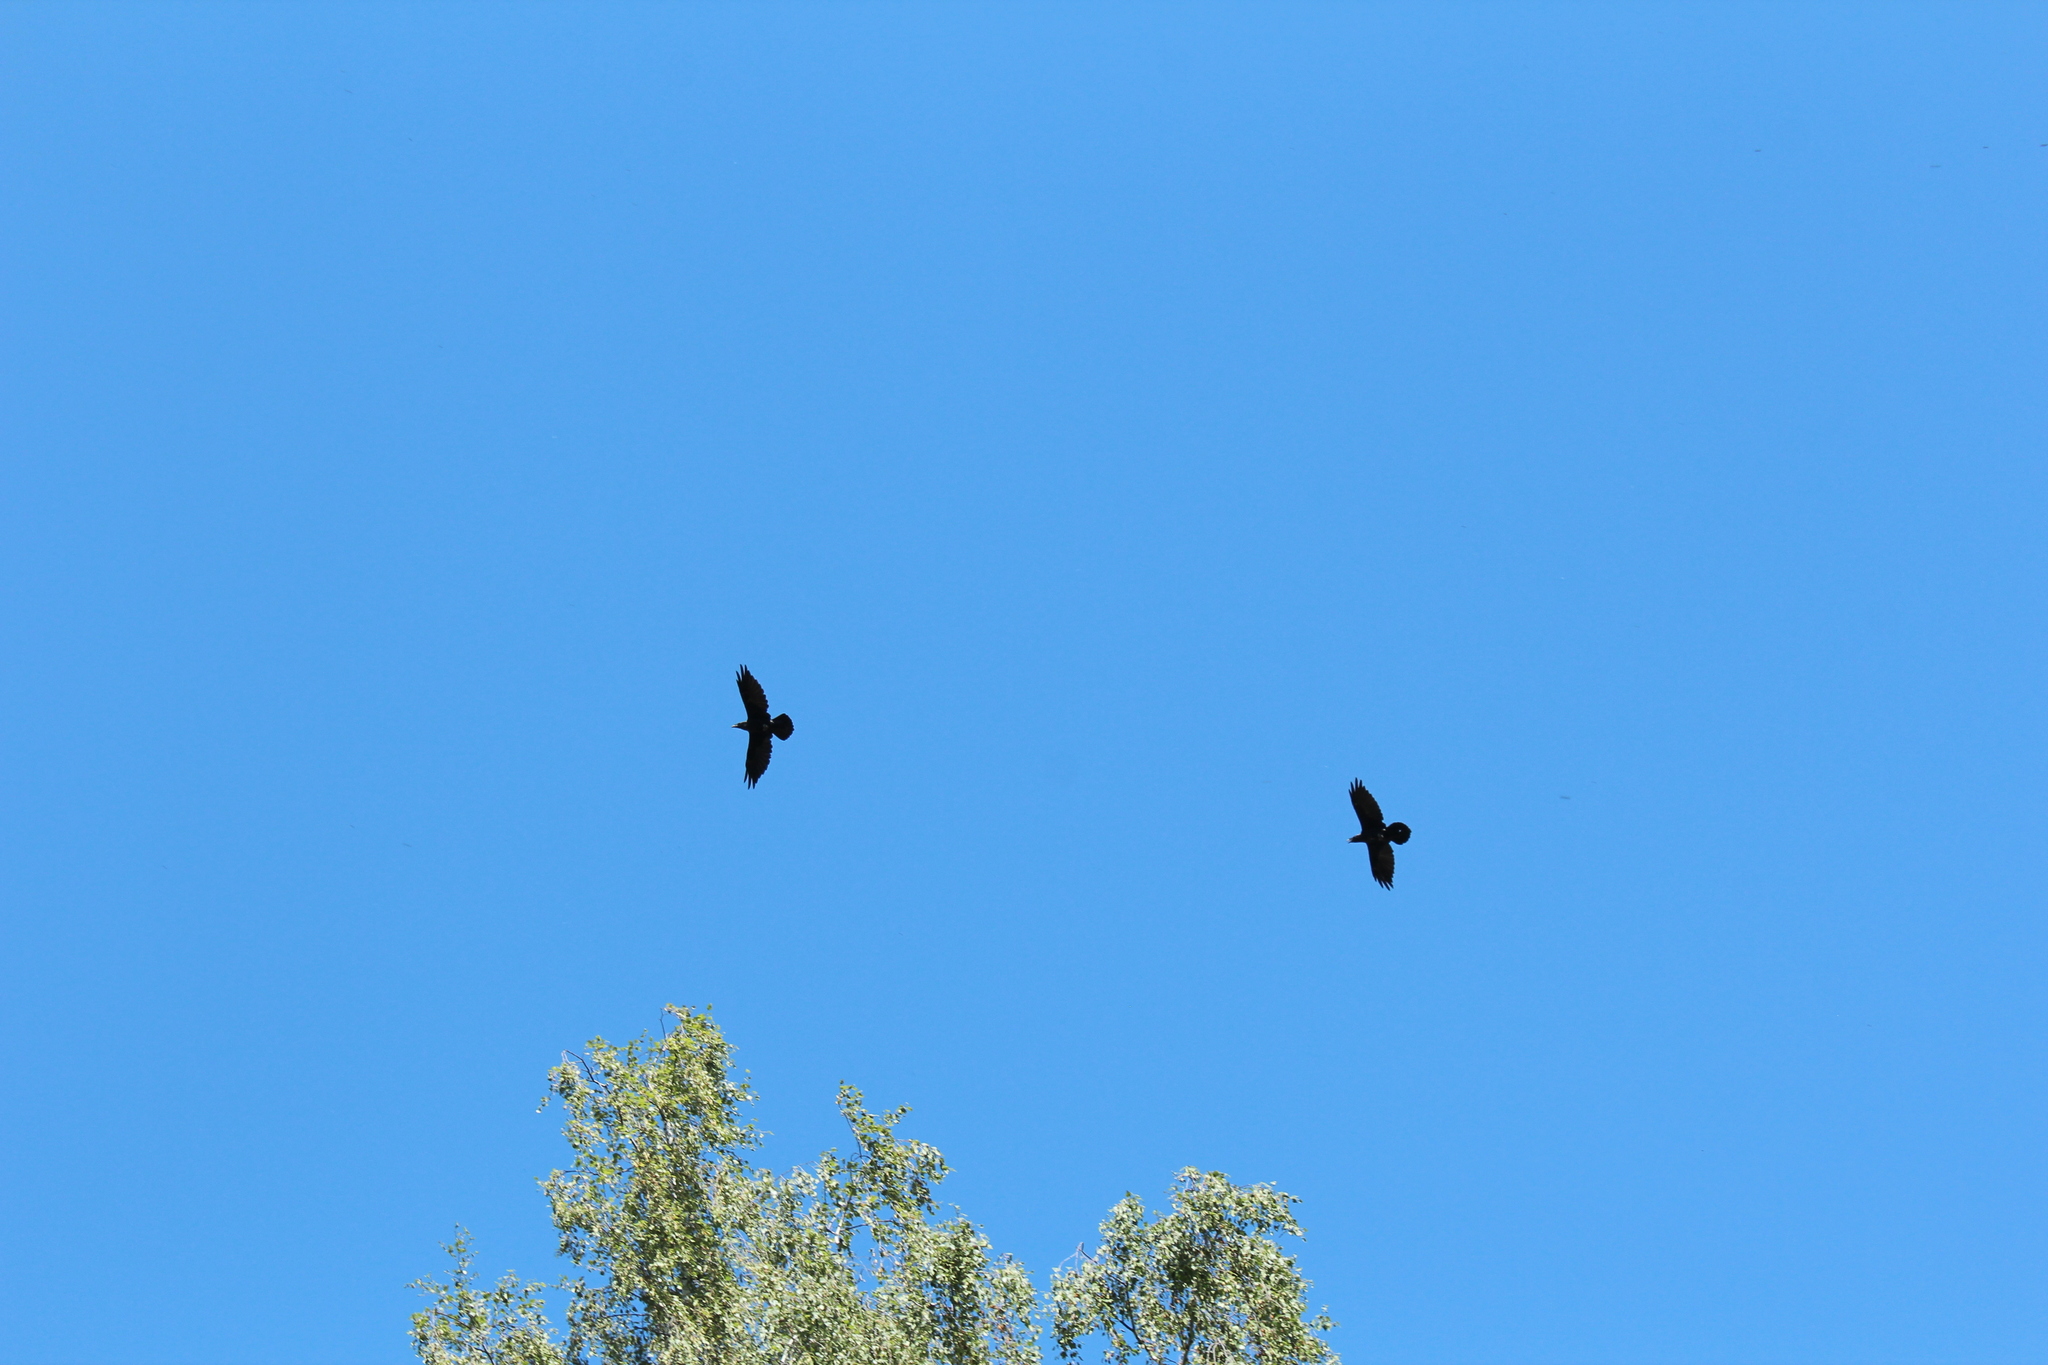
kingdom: Animalia
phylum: Chordata
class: Aves
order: Passeriformes
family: Corvidae
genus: Corvus
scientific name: Corvus corax
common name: Common raven
